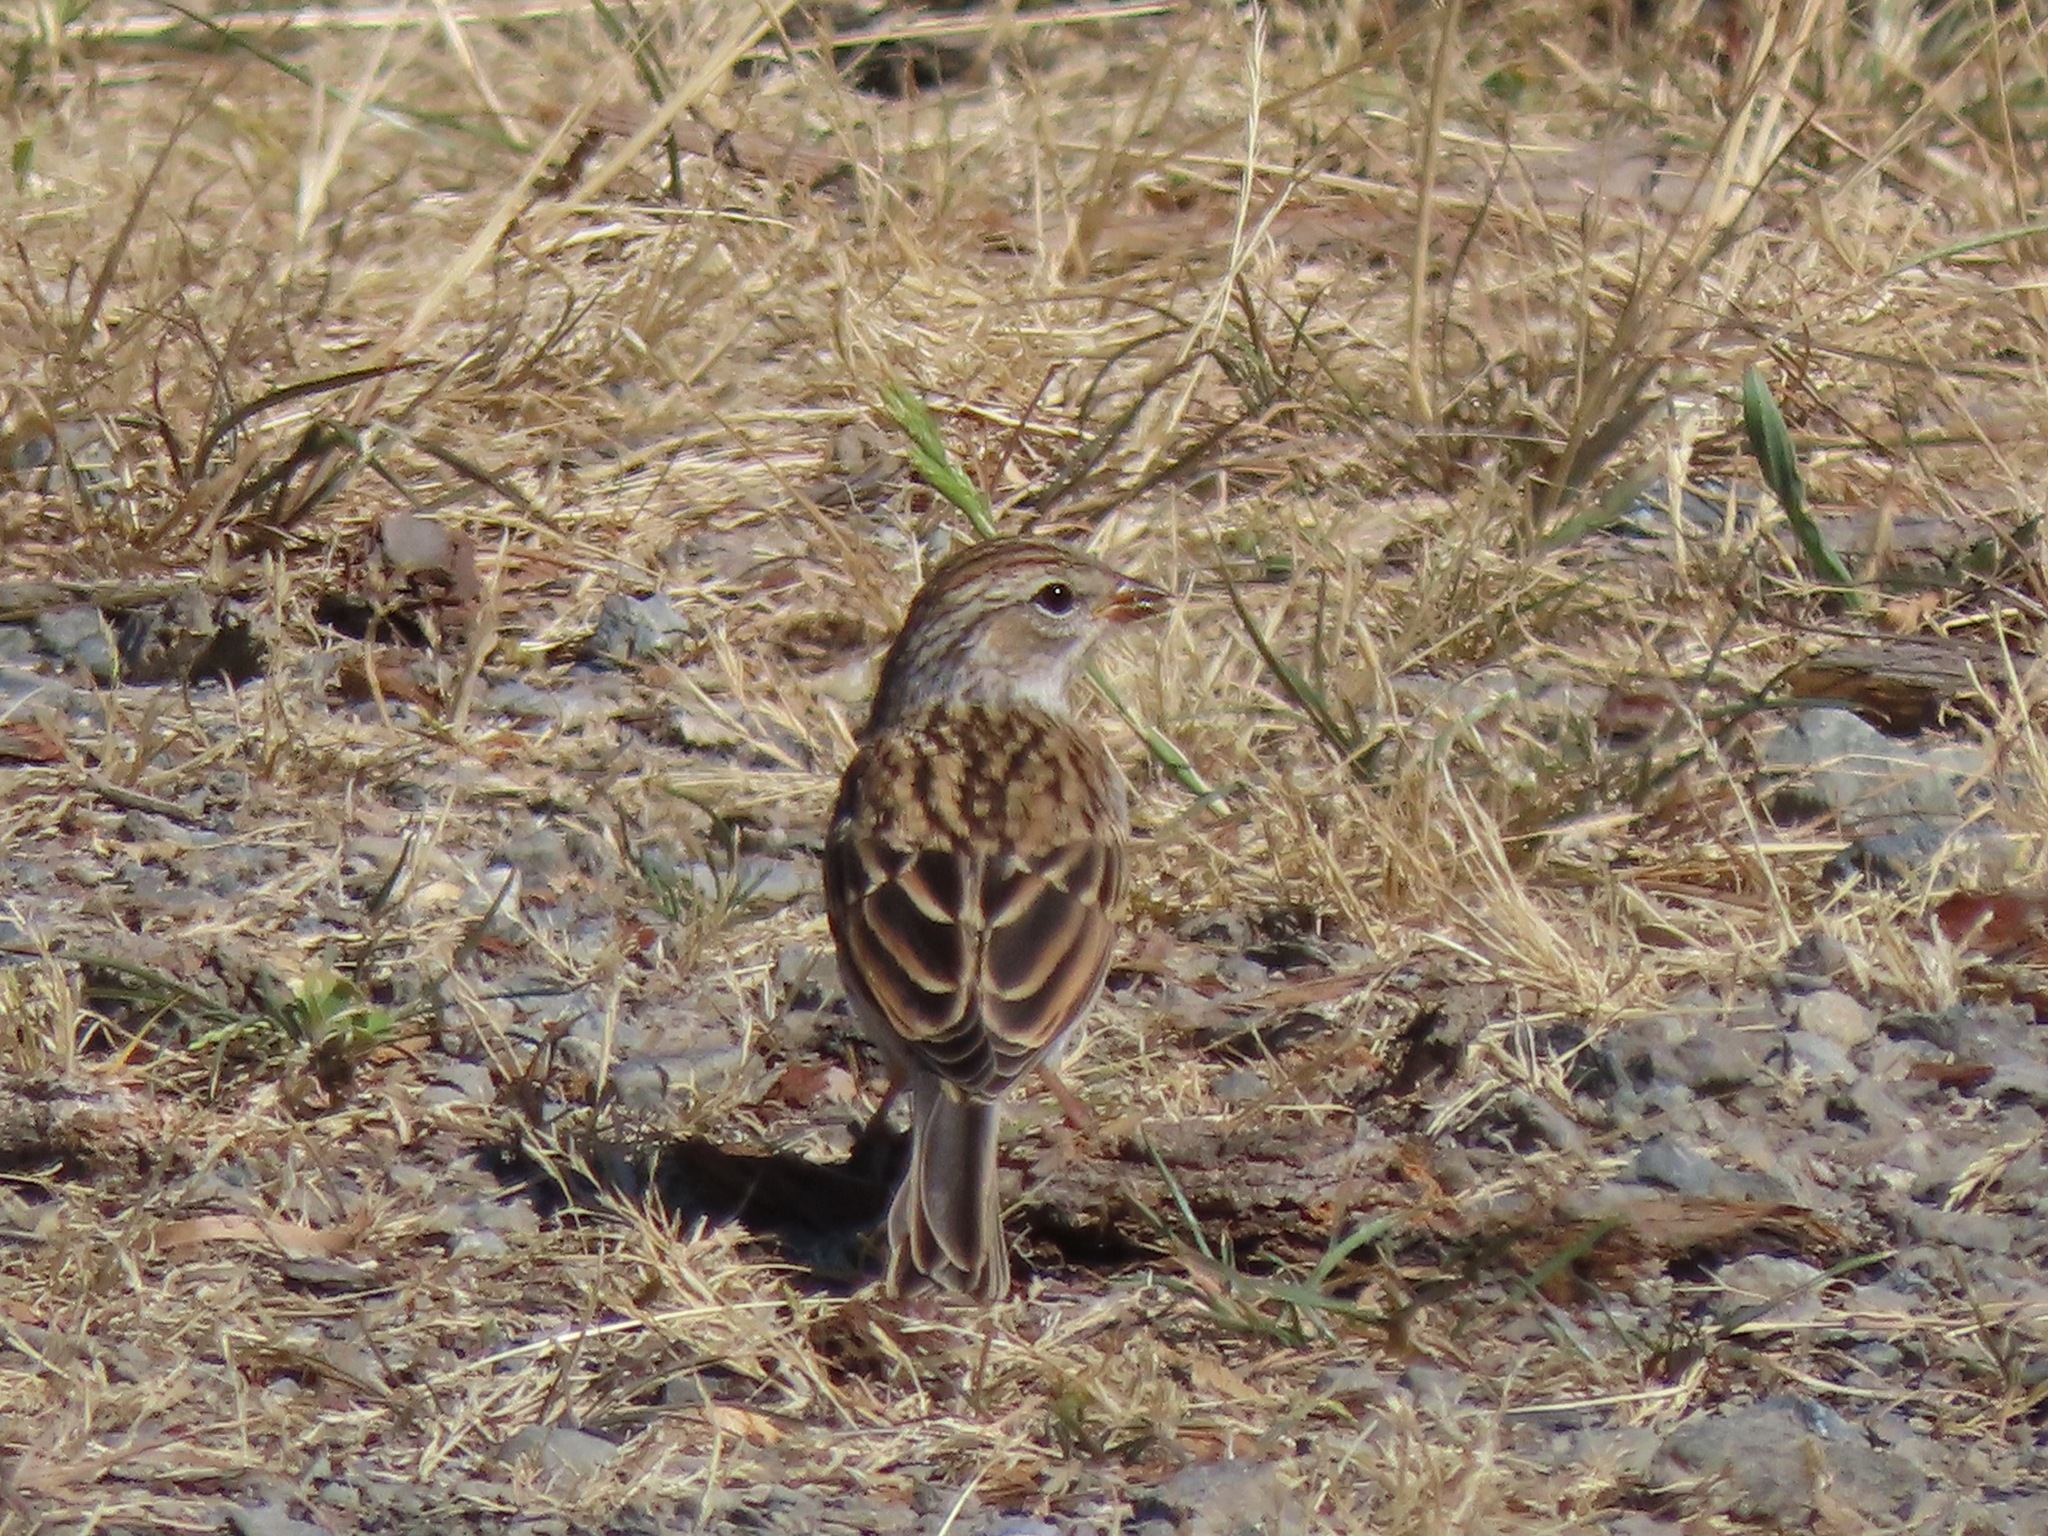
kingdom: Animalia
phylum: Chordata
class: Aves
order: Passeriformes
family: Passerellidae
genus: Spizella
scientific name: Spizella passerina
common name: Chipping sparrow
